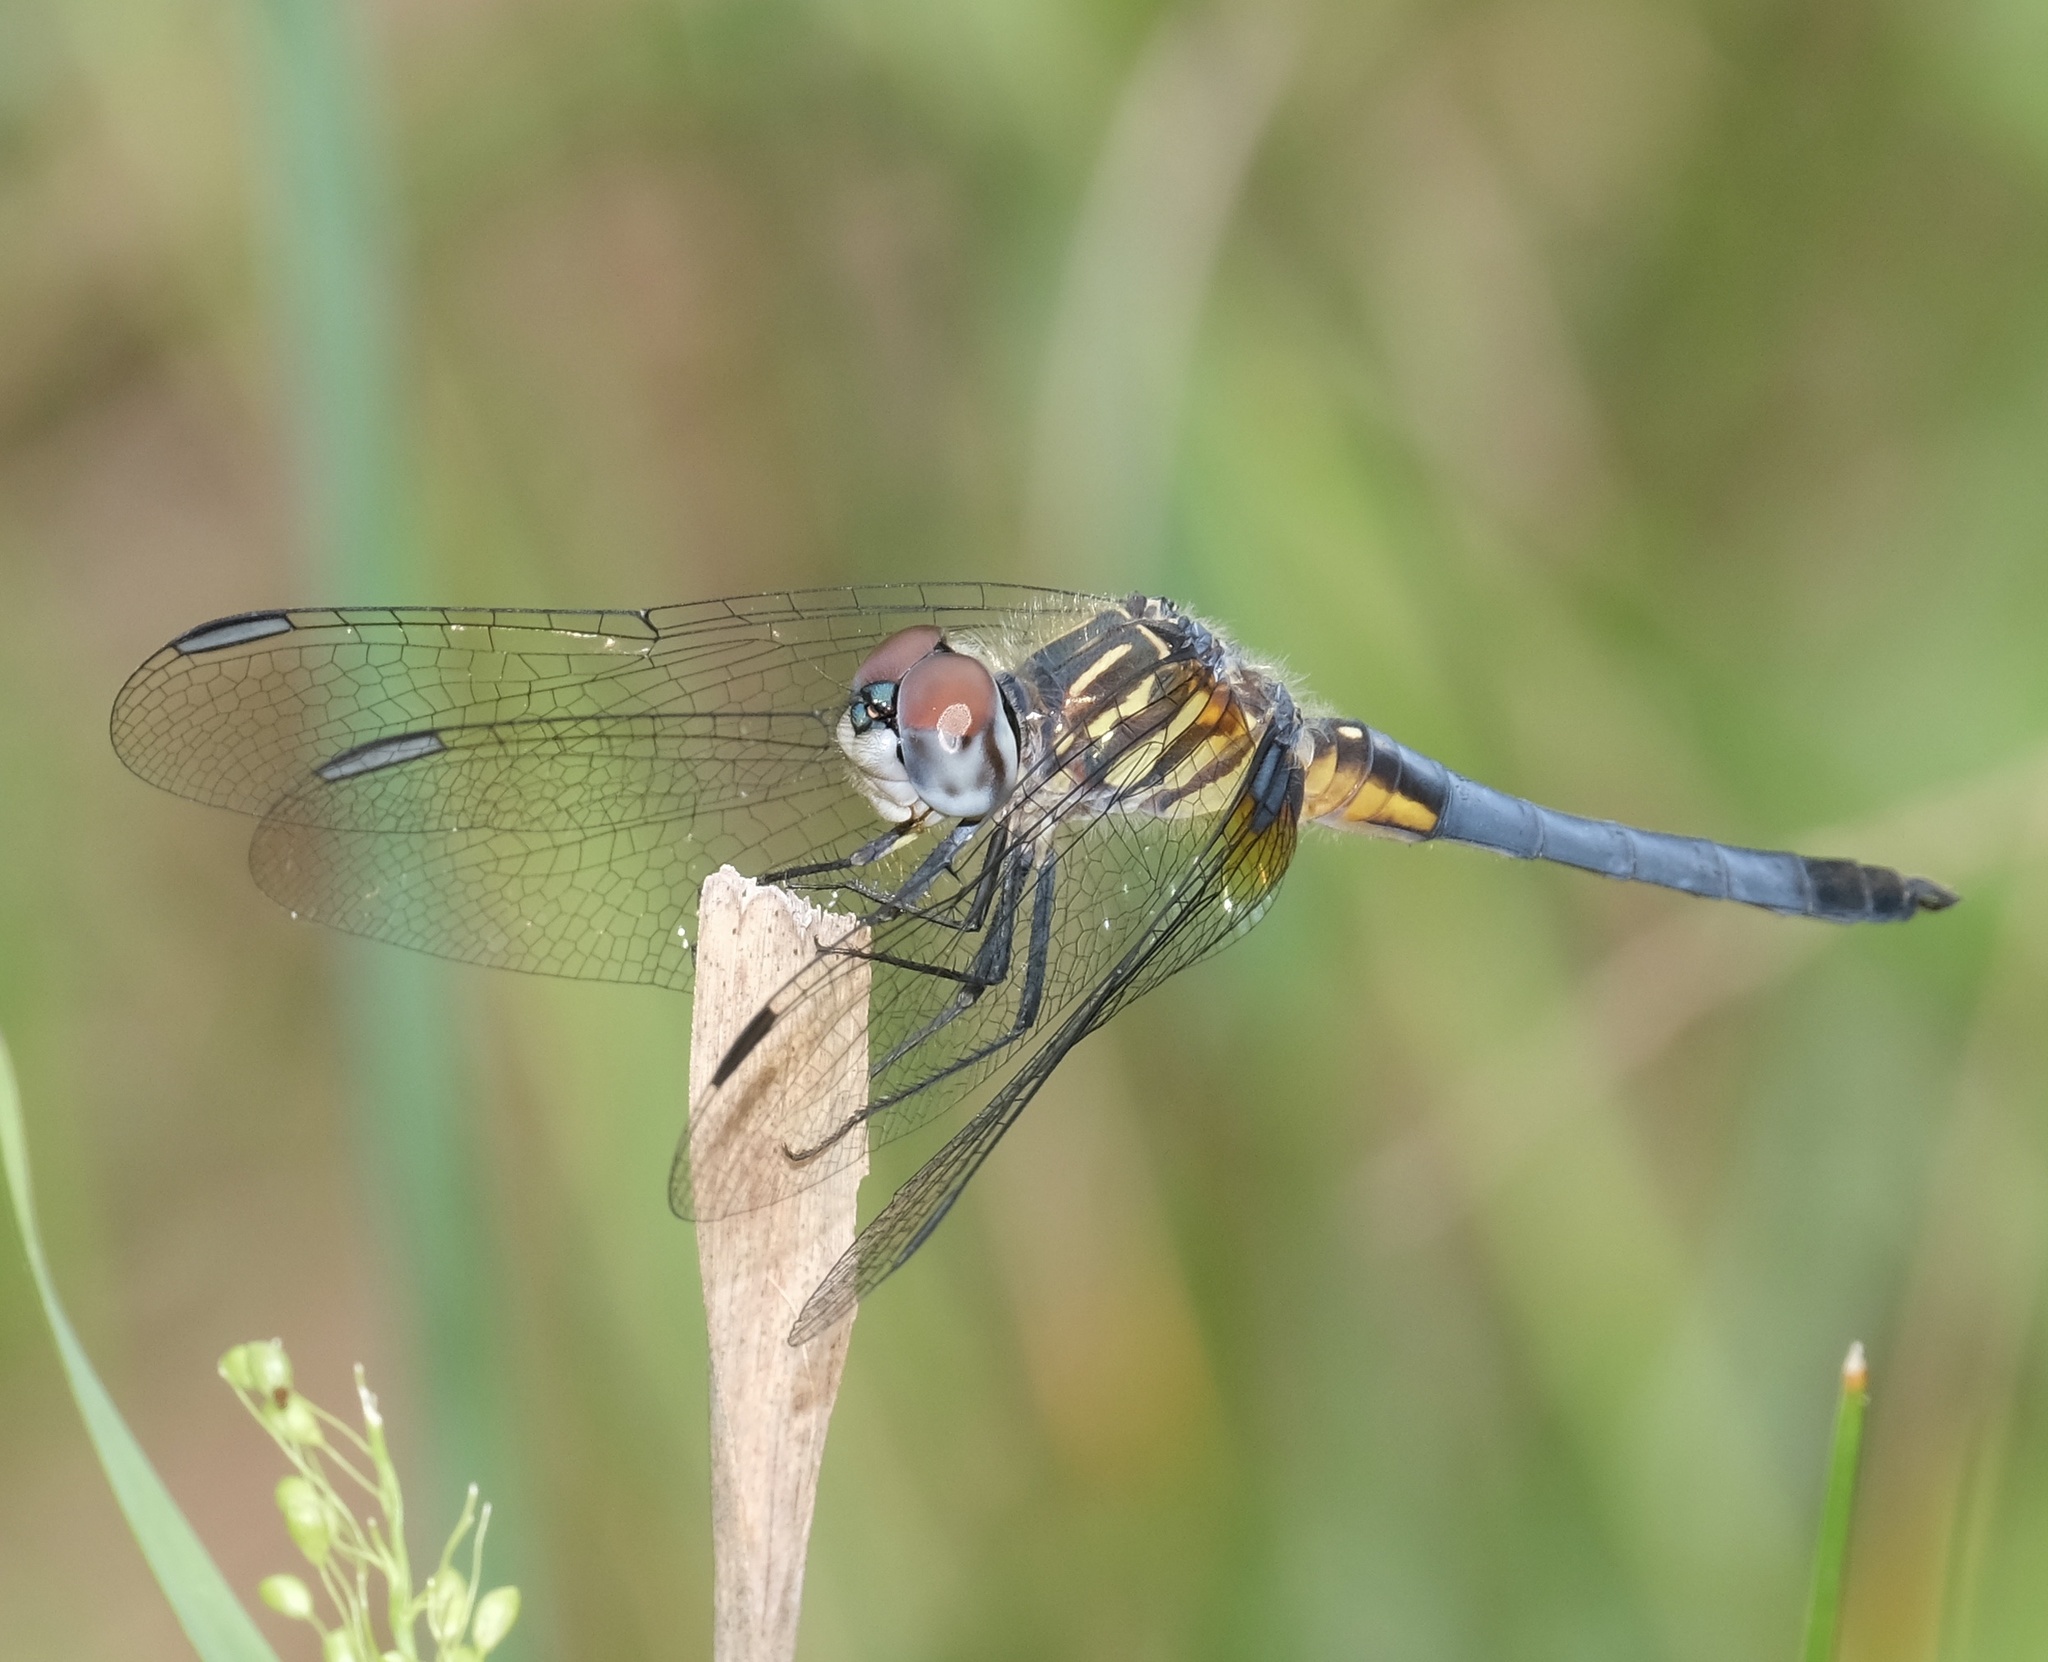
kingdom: Animalia
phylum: Arthropoda
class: Insecta
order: Odonata
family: Libellulidae
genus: Pachydiplax
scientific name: Pachydiplax longipennis
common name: Blue dasher
